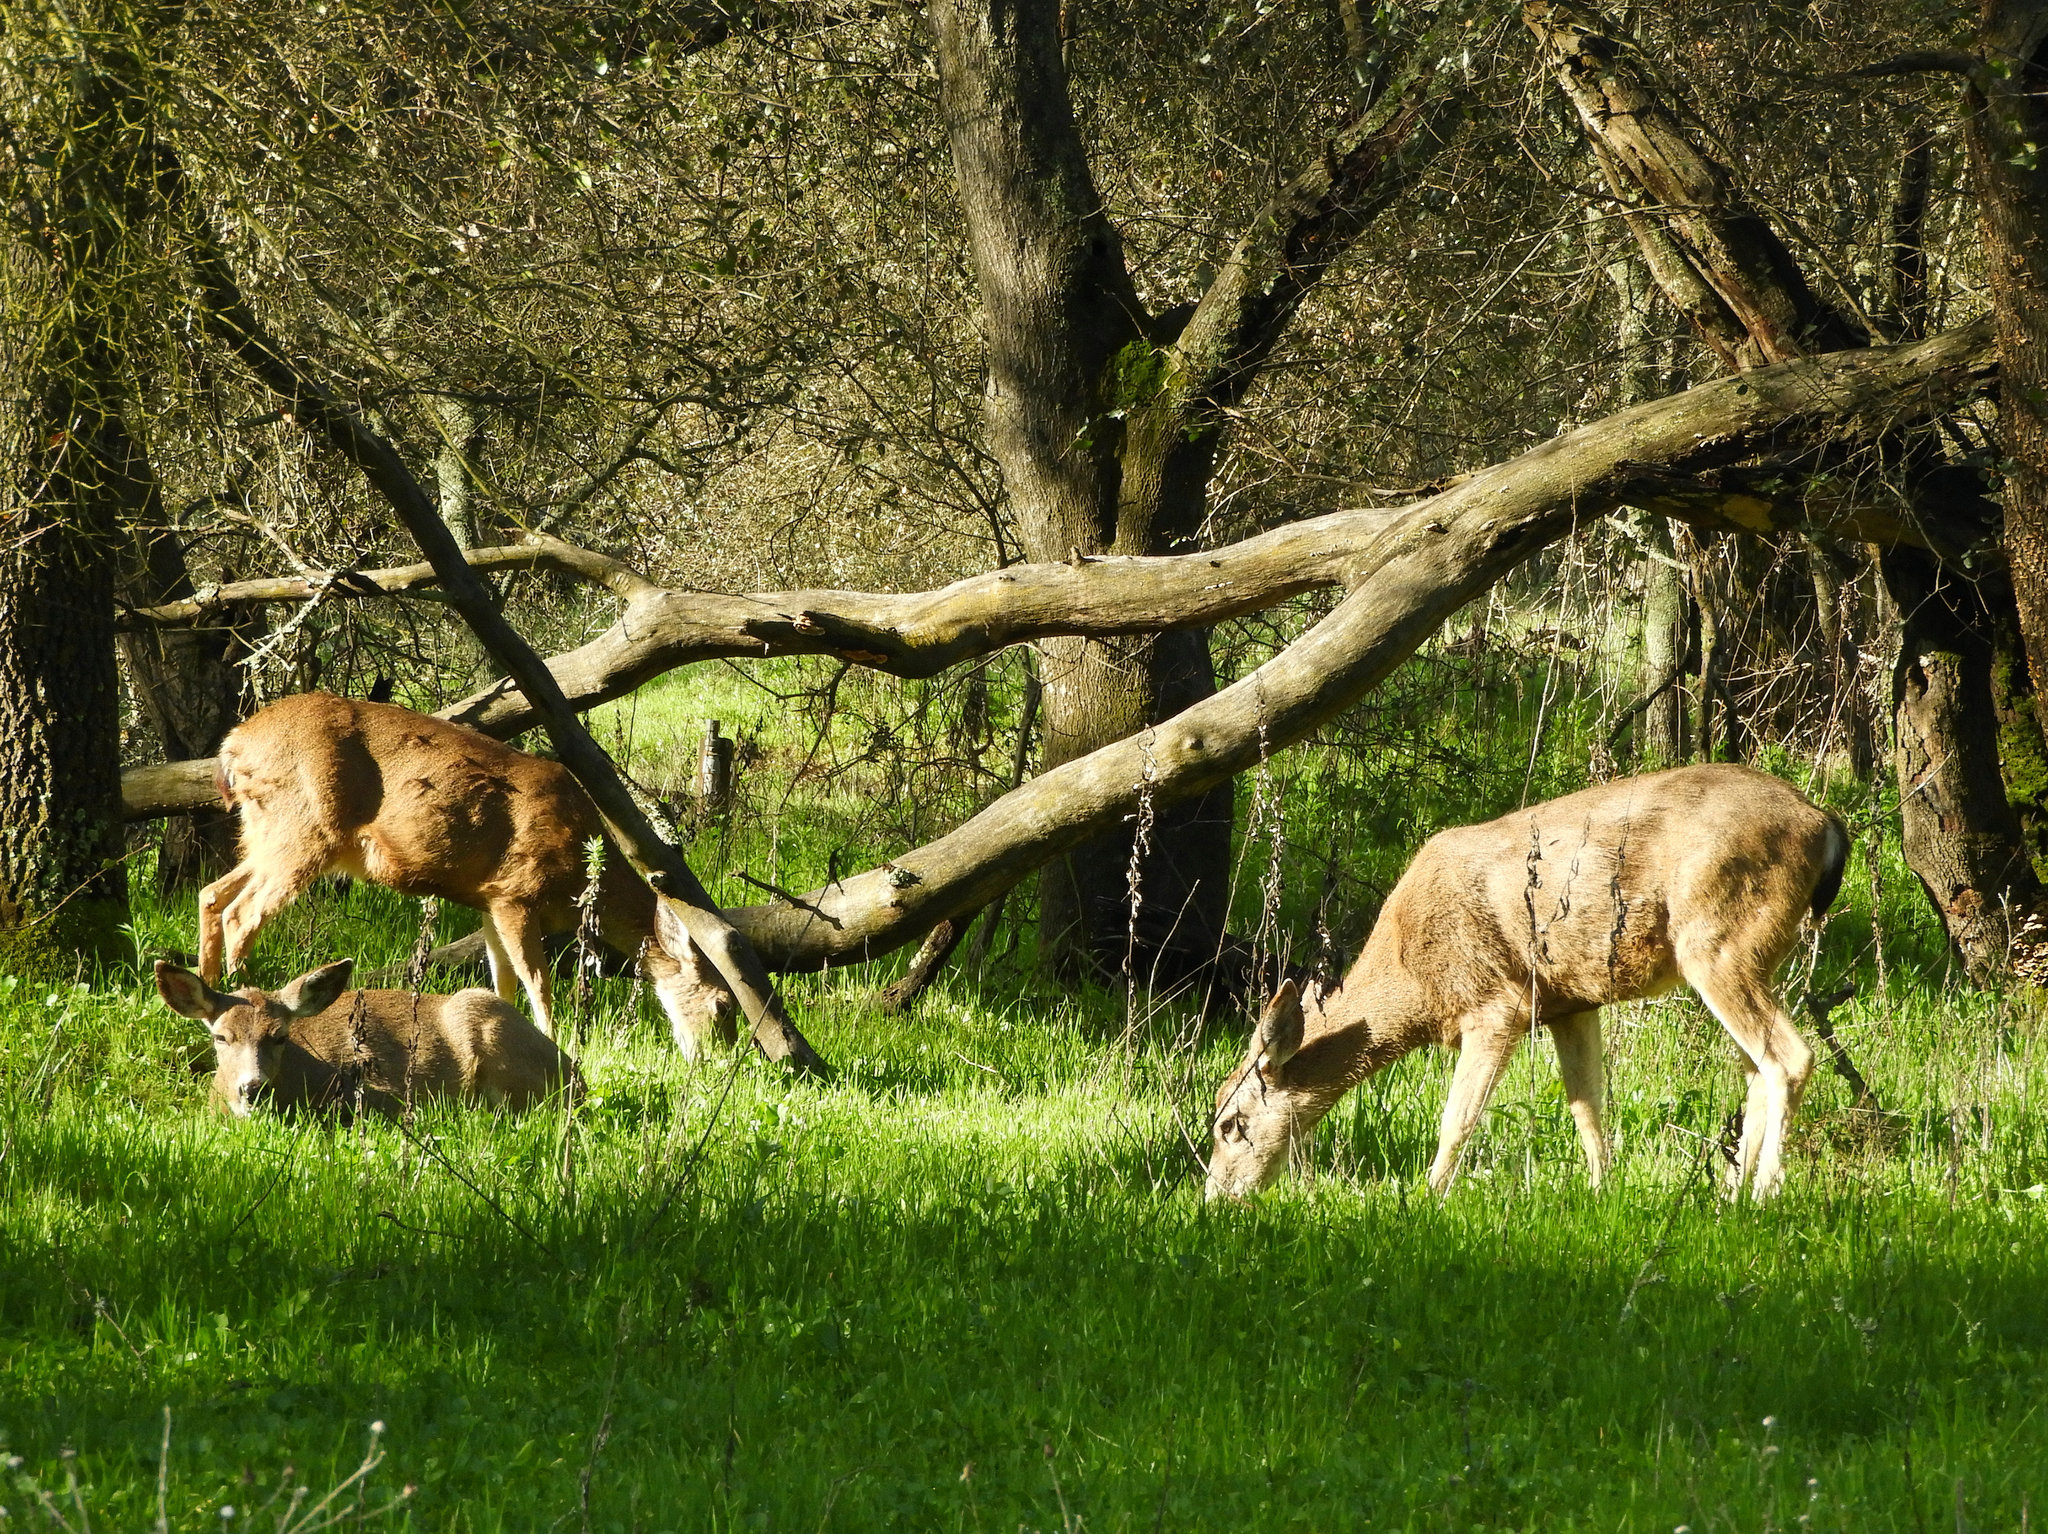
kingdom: Animalia
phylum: Chordata
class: Mammalia
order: Artiodactyla
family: Cervidae
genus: Odocoileus
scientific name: Odocoileus hemionus
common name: Mule deer
